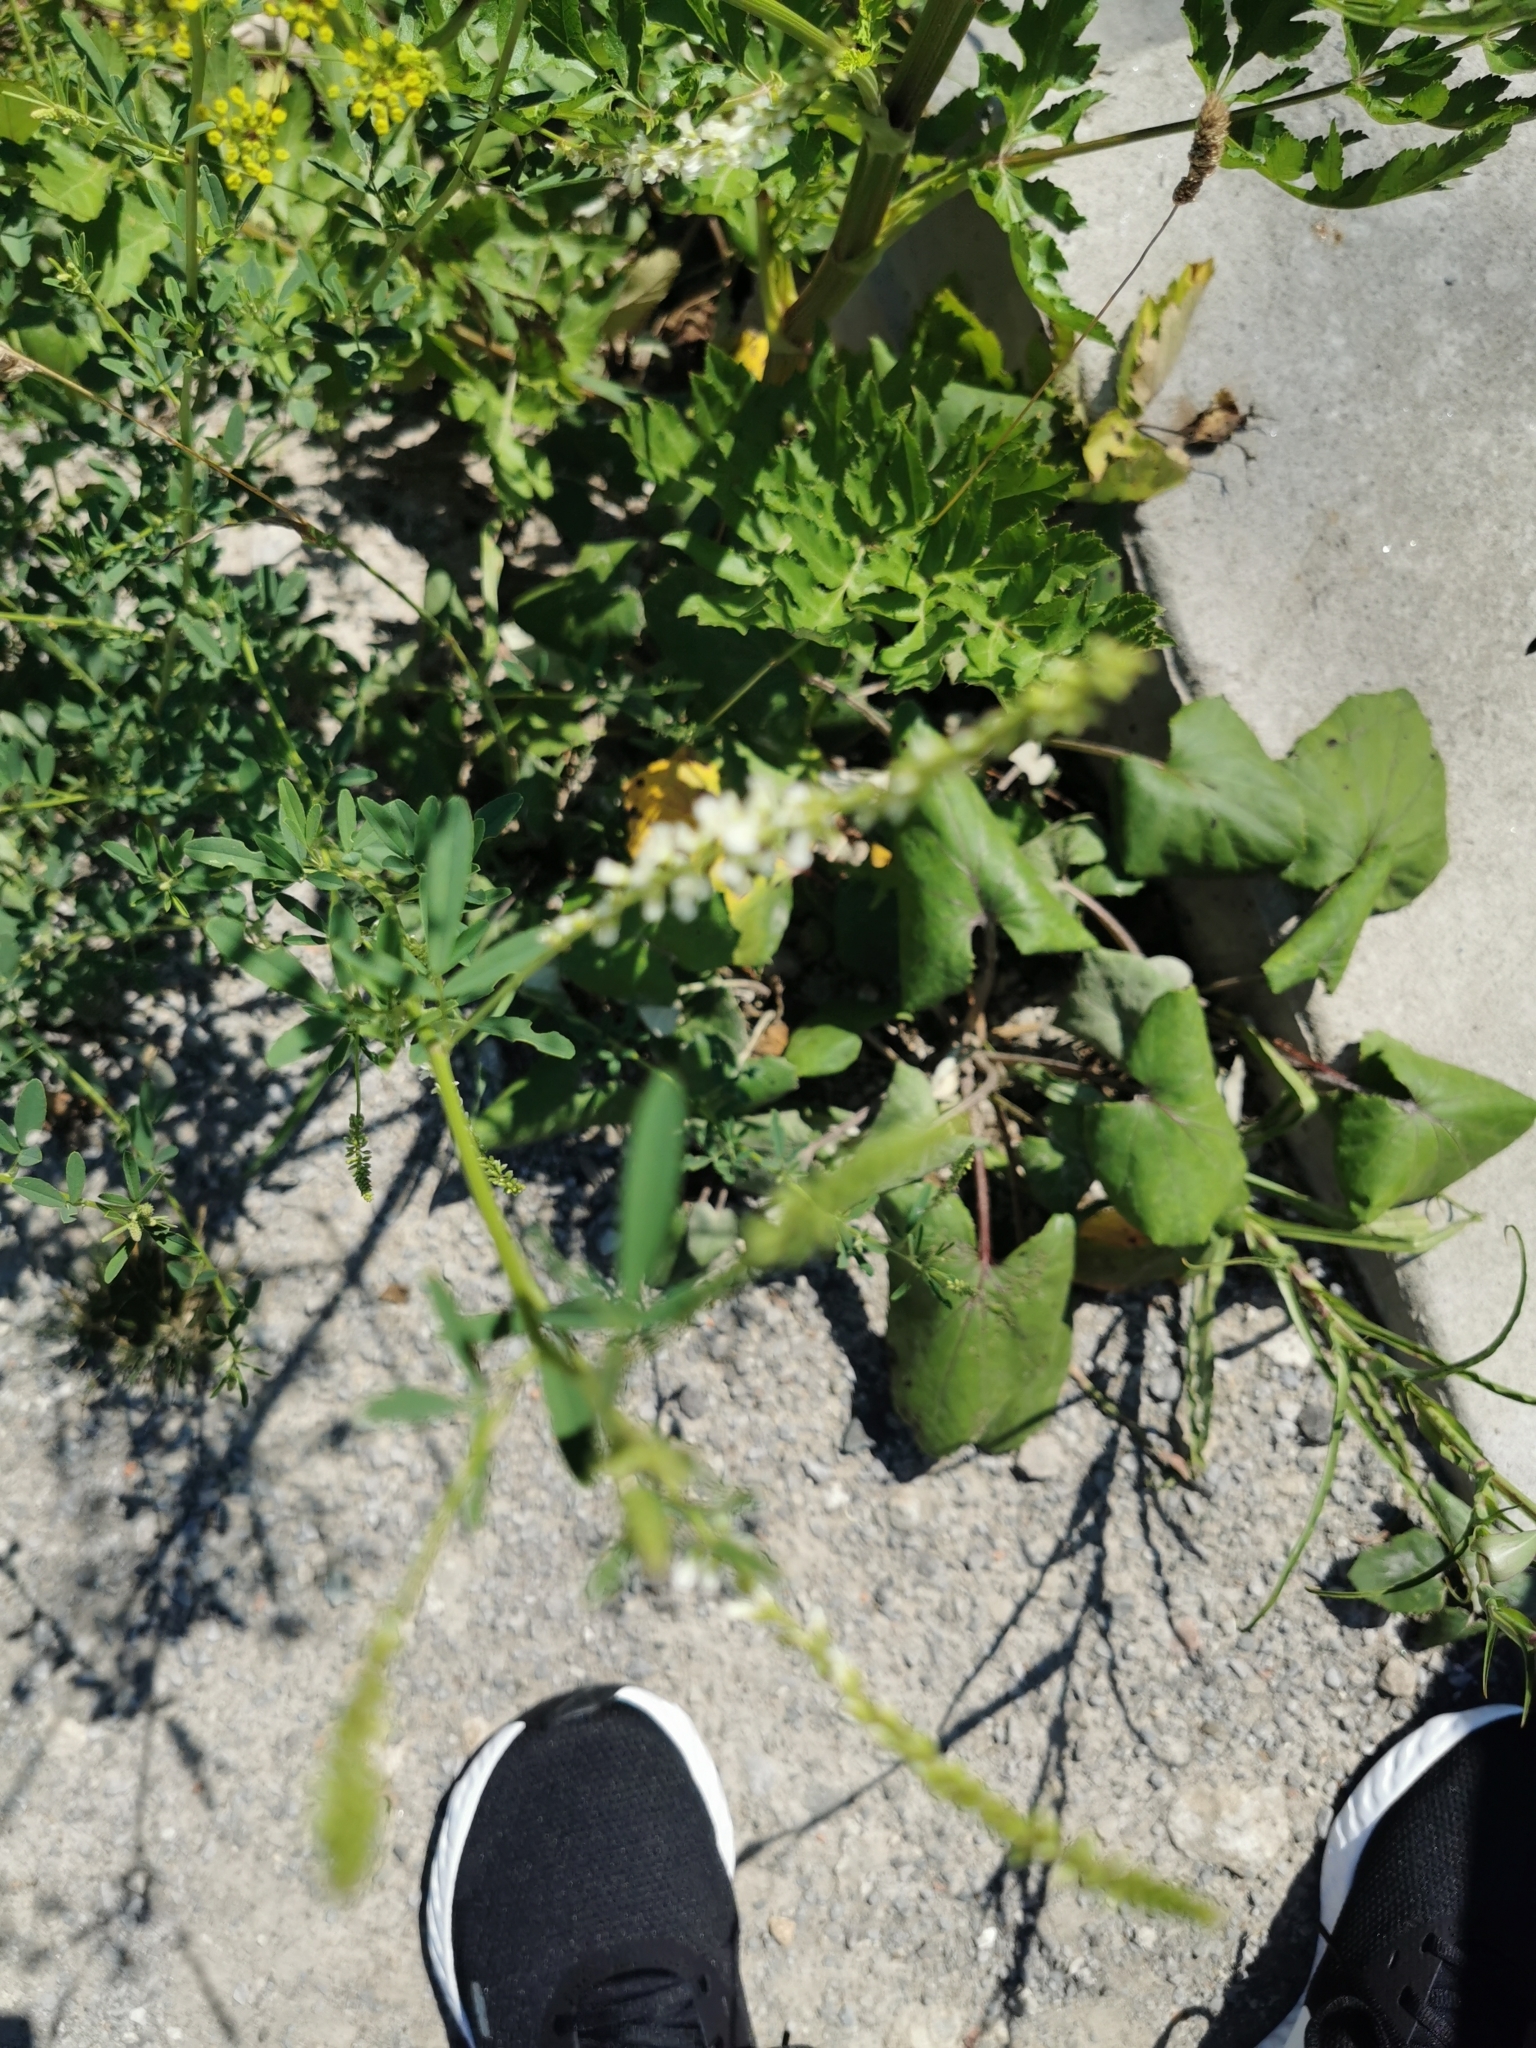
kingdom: Plantae
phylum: Tracheophyta
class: Magnoliopsida
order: Fabales
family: Fabaceae
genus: Melilotus
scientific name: Melilotus albus
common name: White melilot
